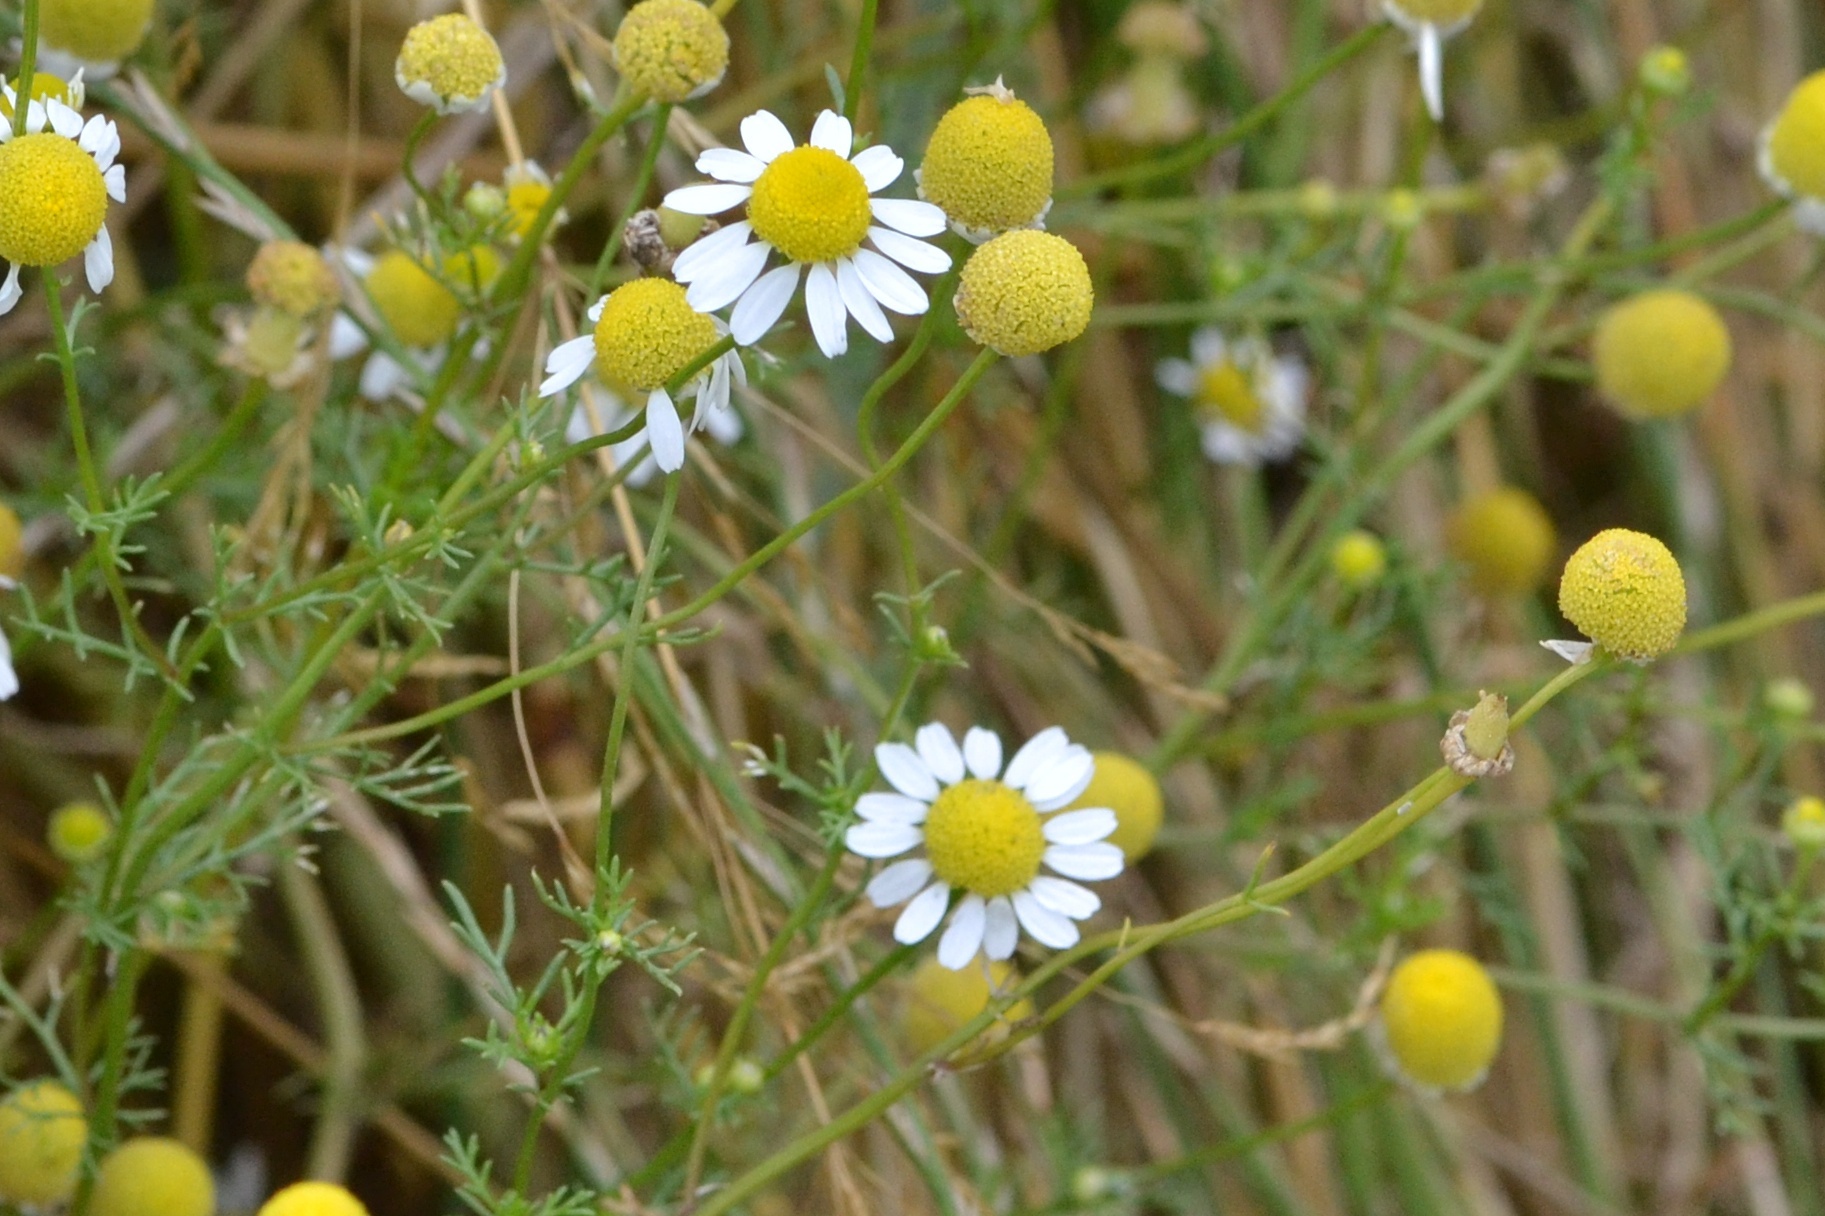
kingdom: Plantae
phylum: Tracheophyta
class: Magnoliopsida
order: Asterales
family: Asteraceae
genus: Matricaria
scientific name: Matricaria chamomilla
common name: Scented mayweed
